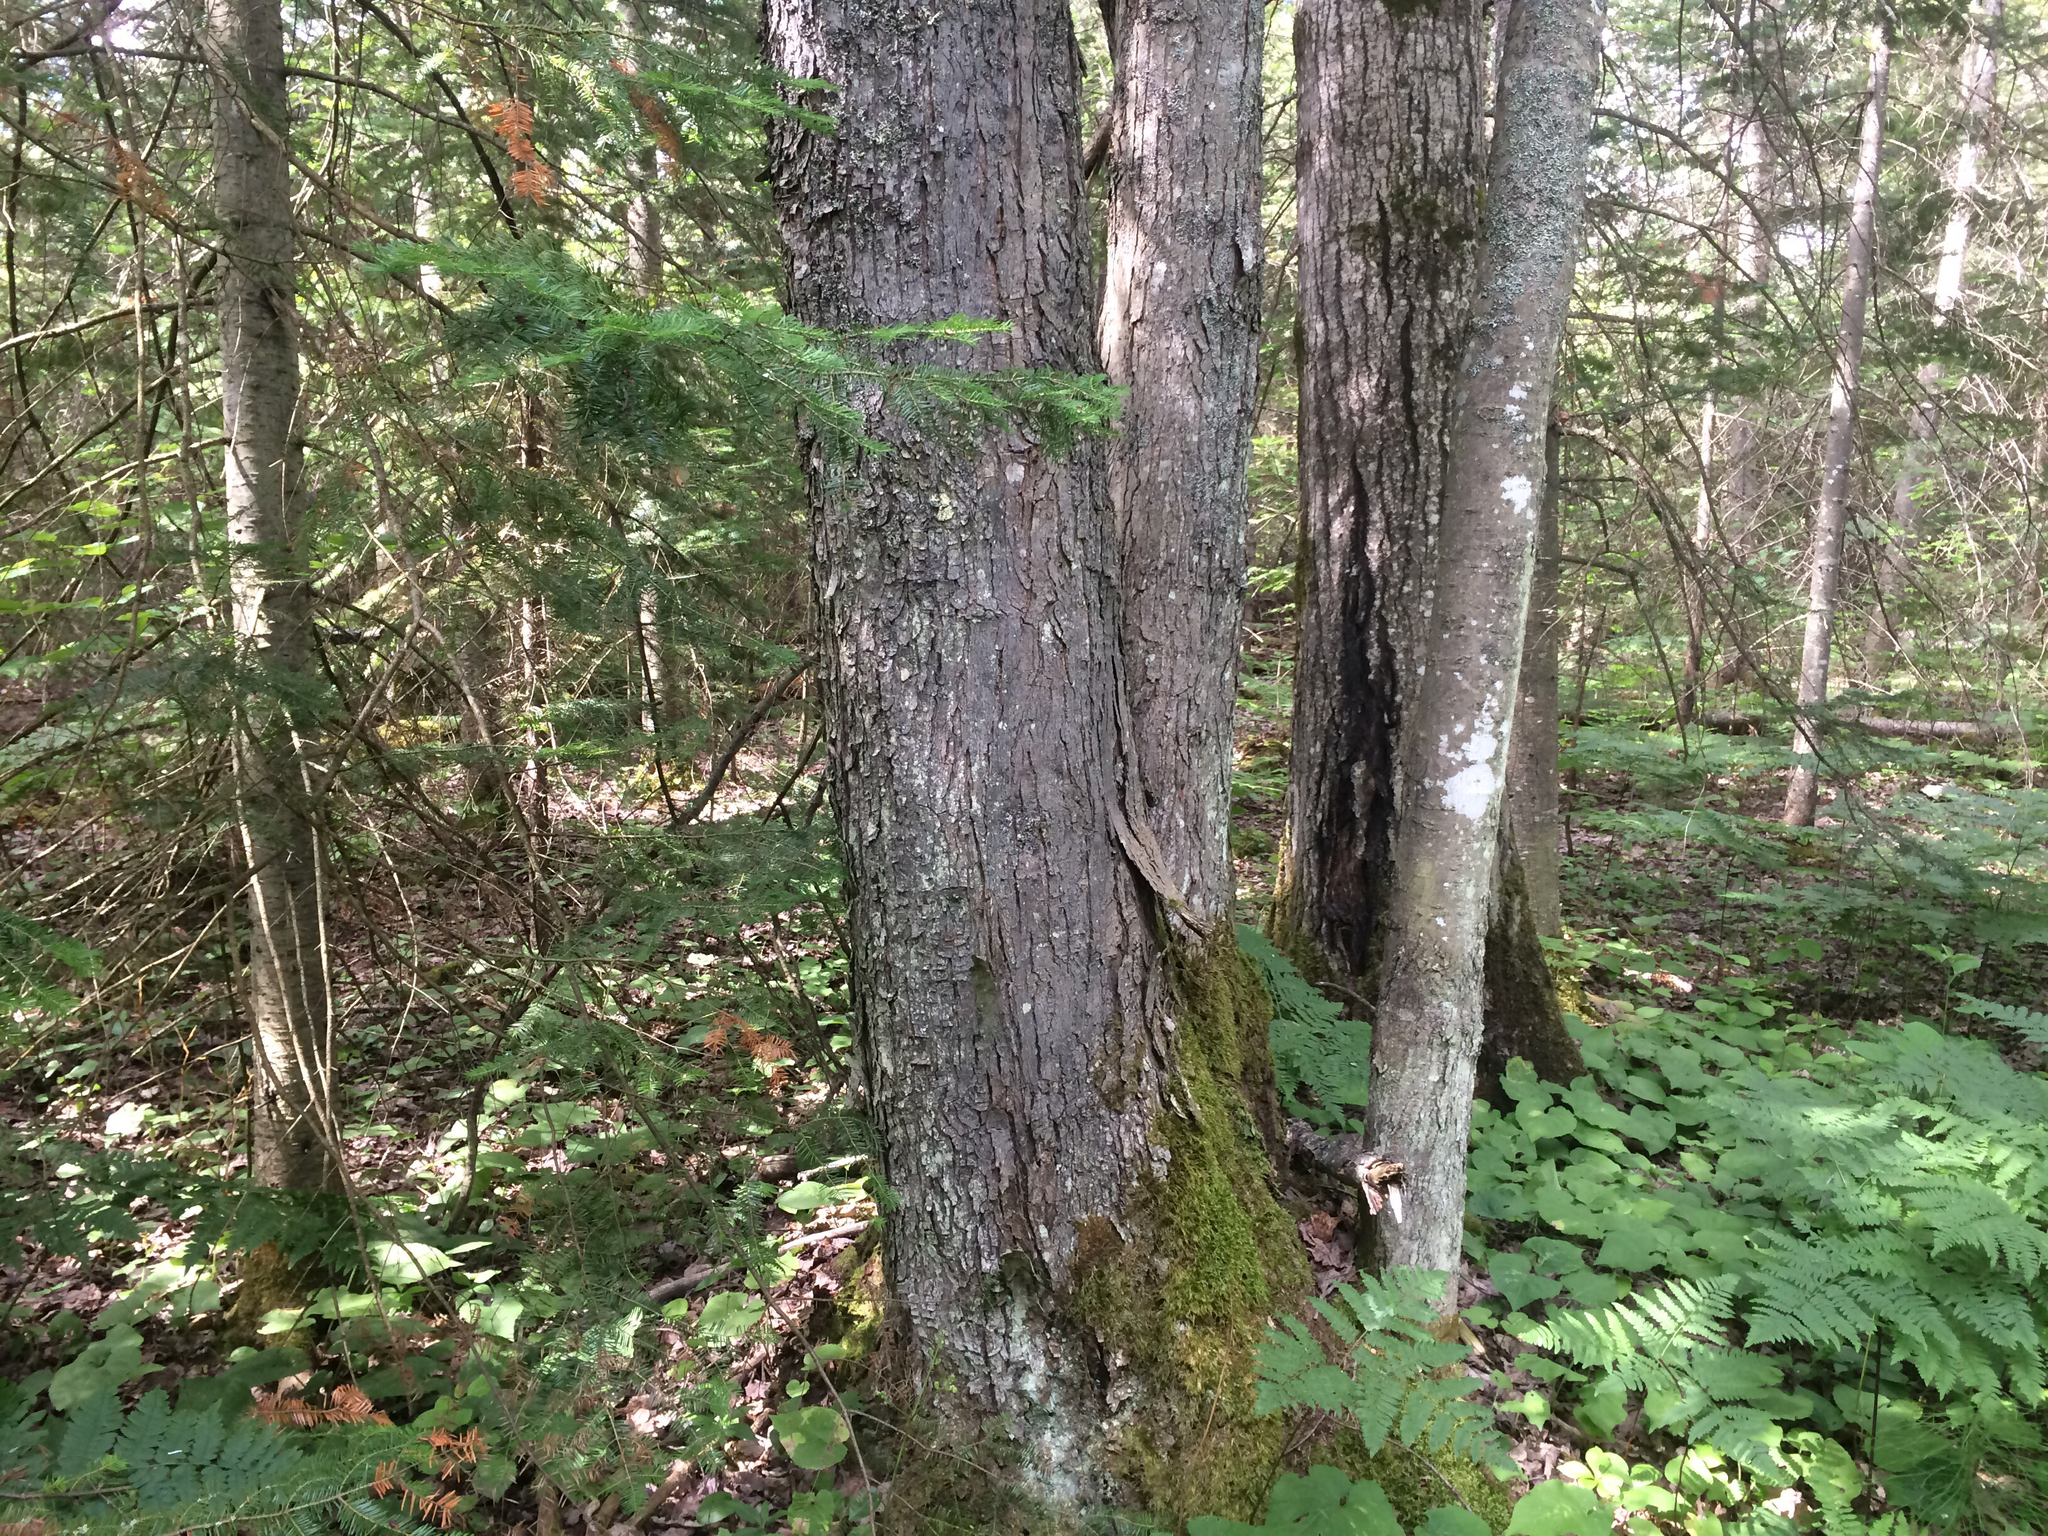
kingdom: Plantae
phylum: Tracheophyta
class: Magnoliopsida
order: Sapindales
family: Sapindaceae
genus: Acer
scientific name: Acer saccharinum
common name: Silver maple
